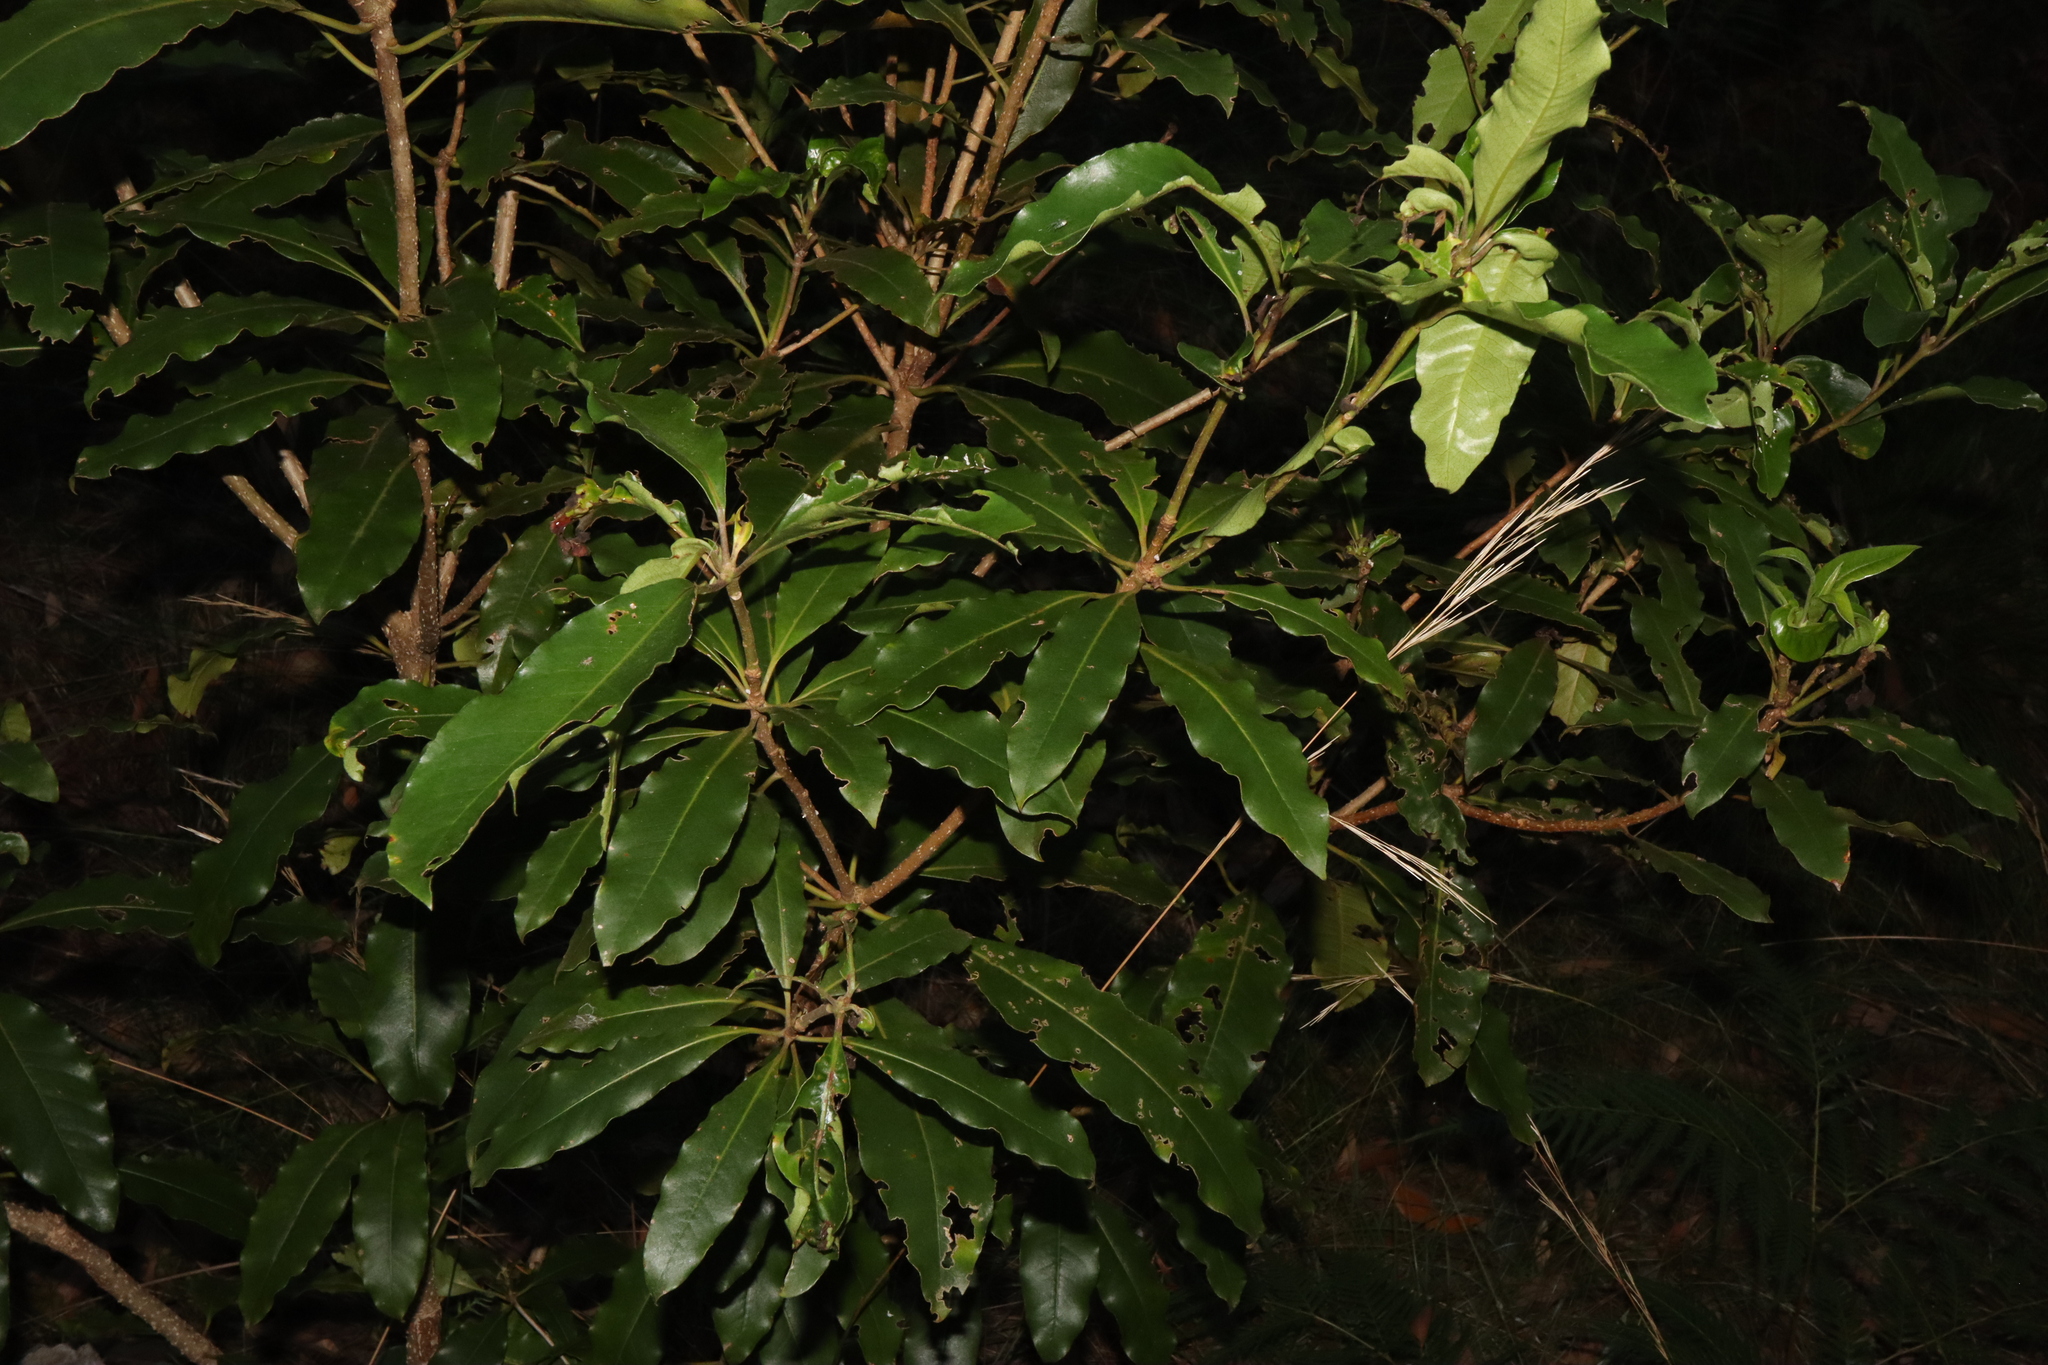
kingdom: Plantae
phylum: Tracheophyta
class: Magnoliopsida
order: Apiales
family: Pittosporaceae
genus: Pittosporum
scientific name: Pittosporum undulatum
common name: Australian cheesewood
